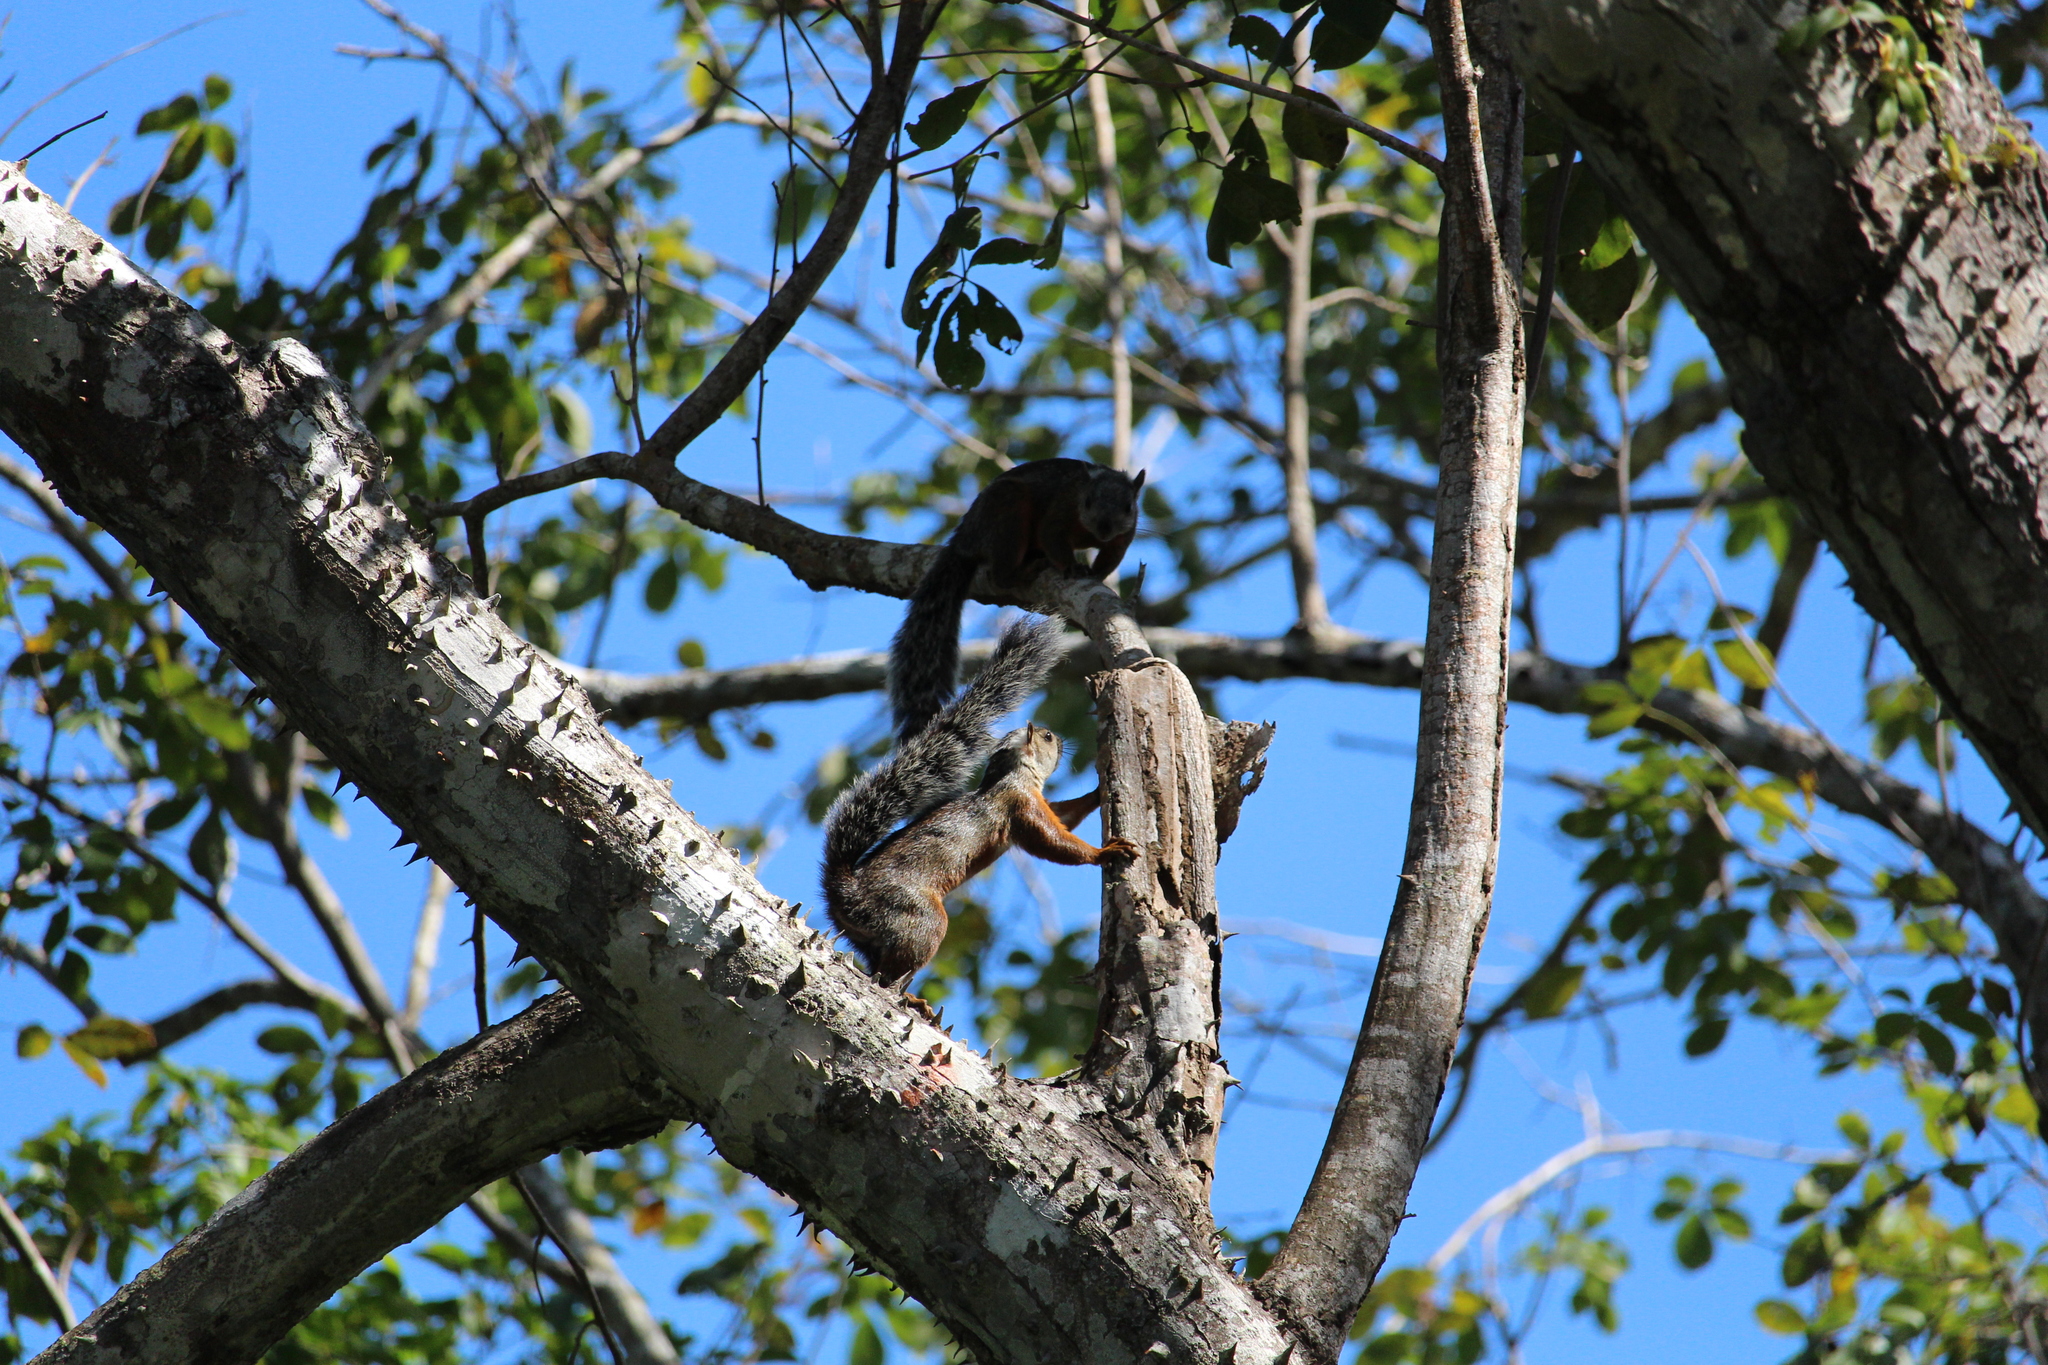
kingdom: Animalia
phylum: Chordata
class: Mammalia
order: Rodentia
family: Sciuridae
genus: Sciurus
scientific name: Sciurus variegatoides
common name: Variegated squirrel
